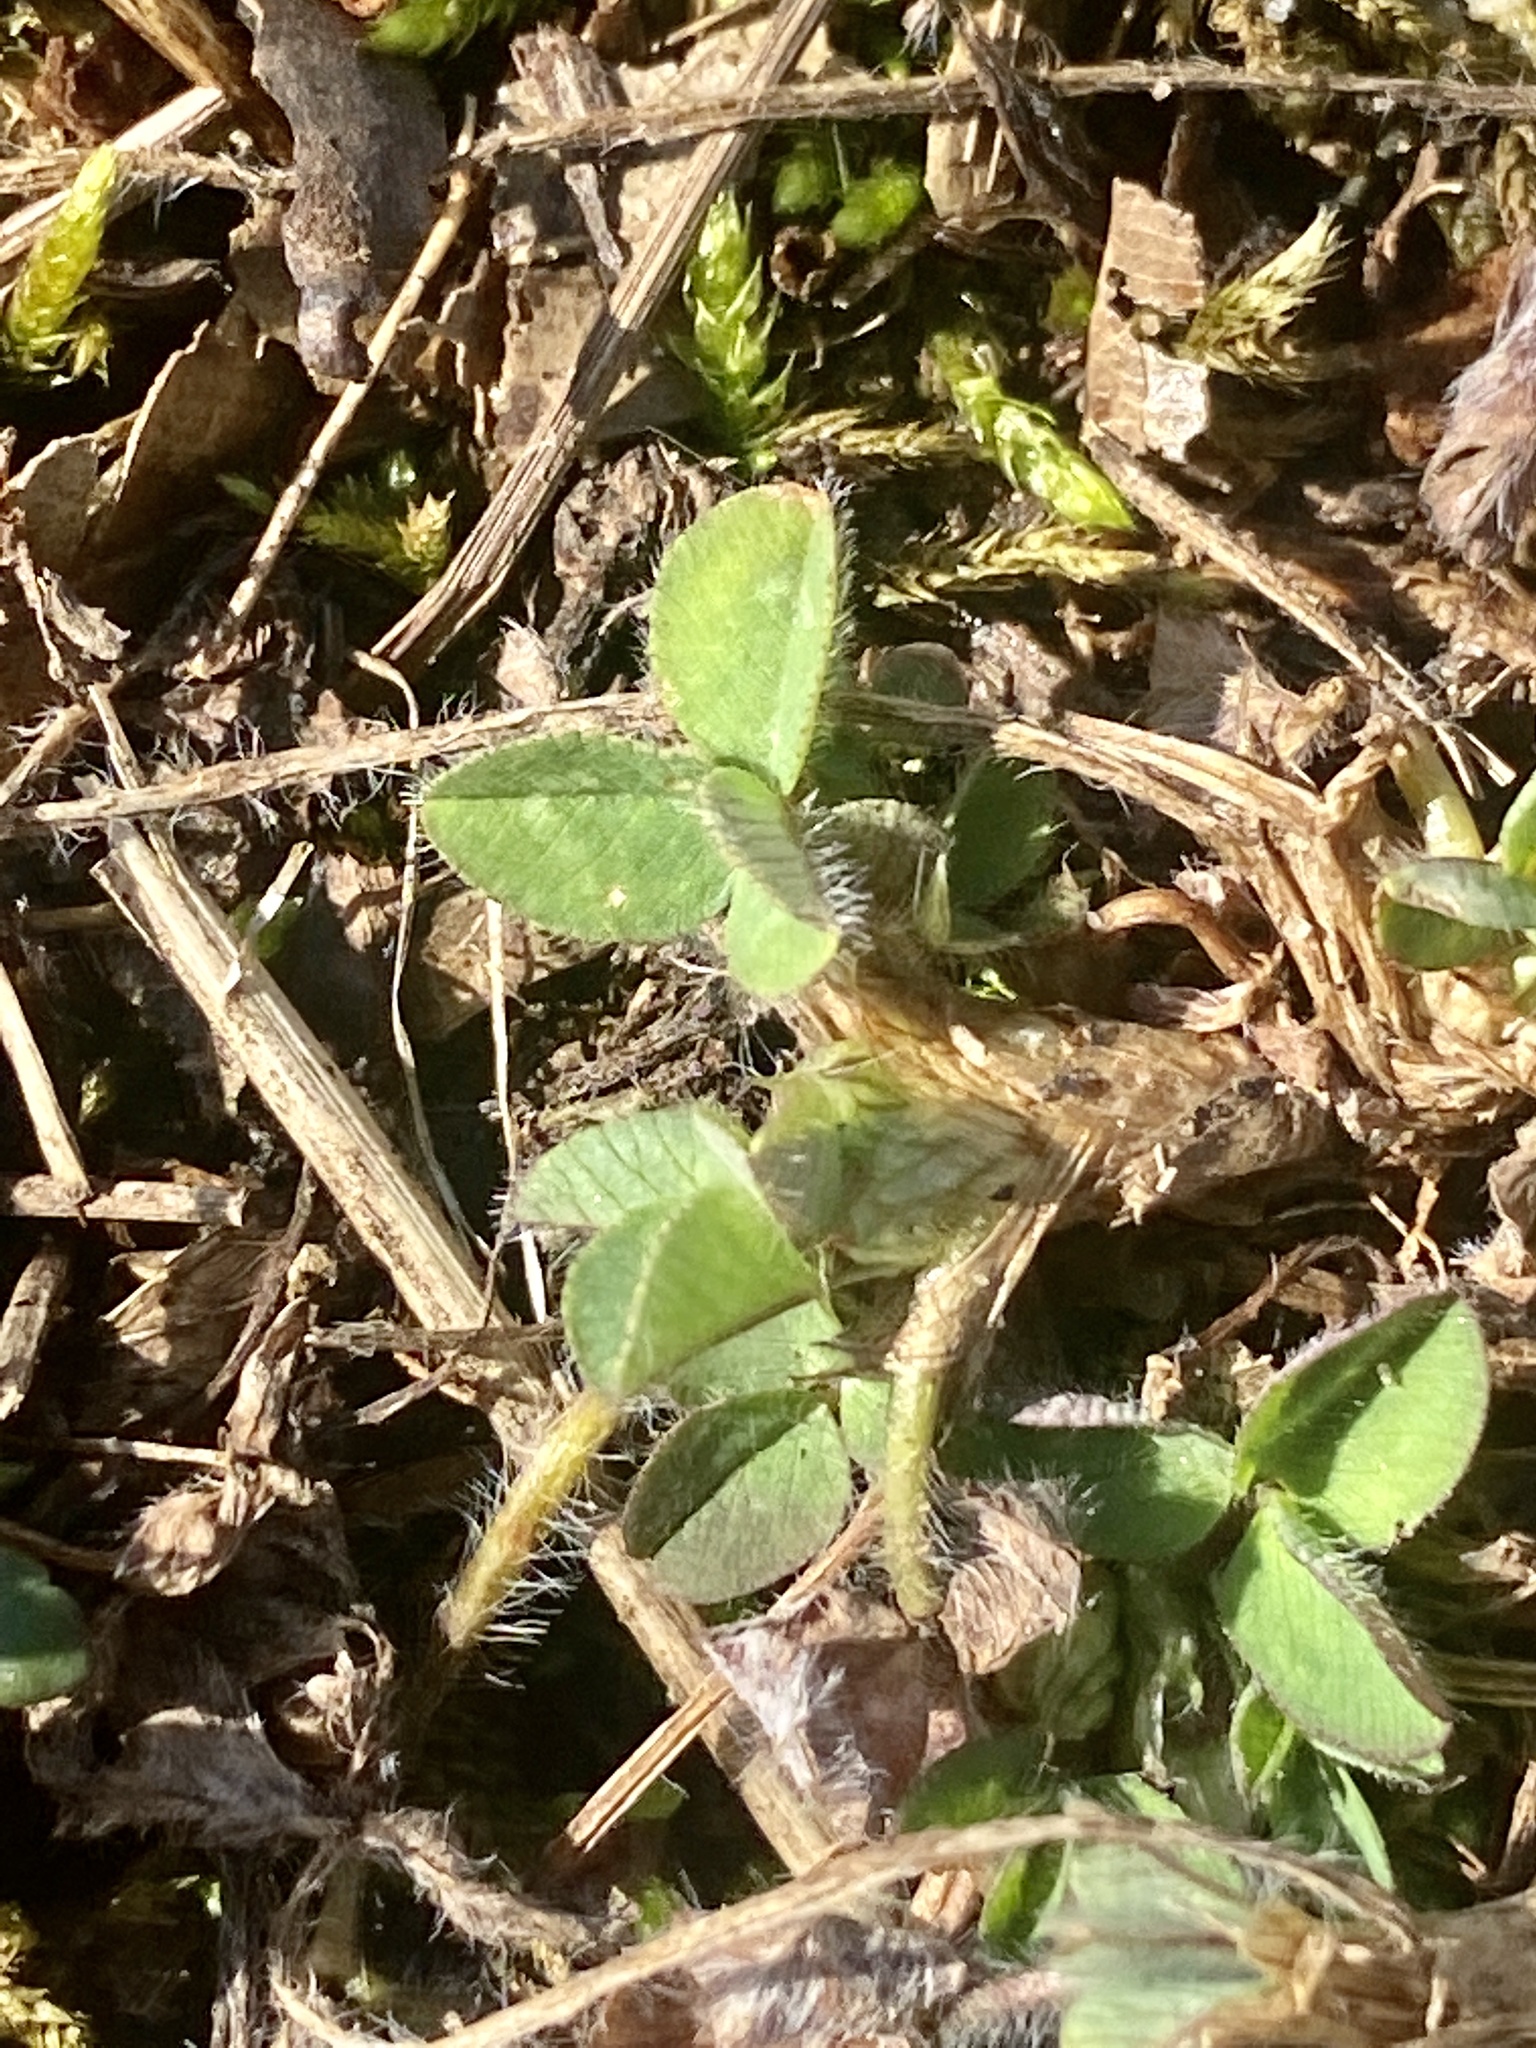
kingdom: Plantae
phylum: Tracheophyta
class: Magnoliopsida
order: Fabales
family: Fabaceae
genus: Trifolium
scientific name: Trifolium pratense
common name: Red clover
